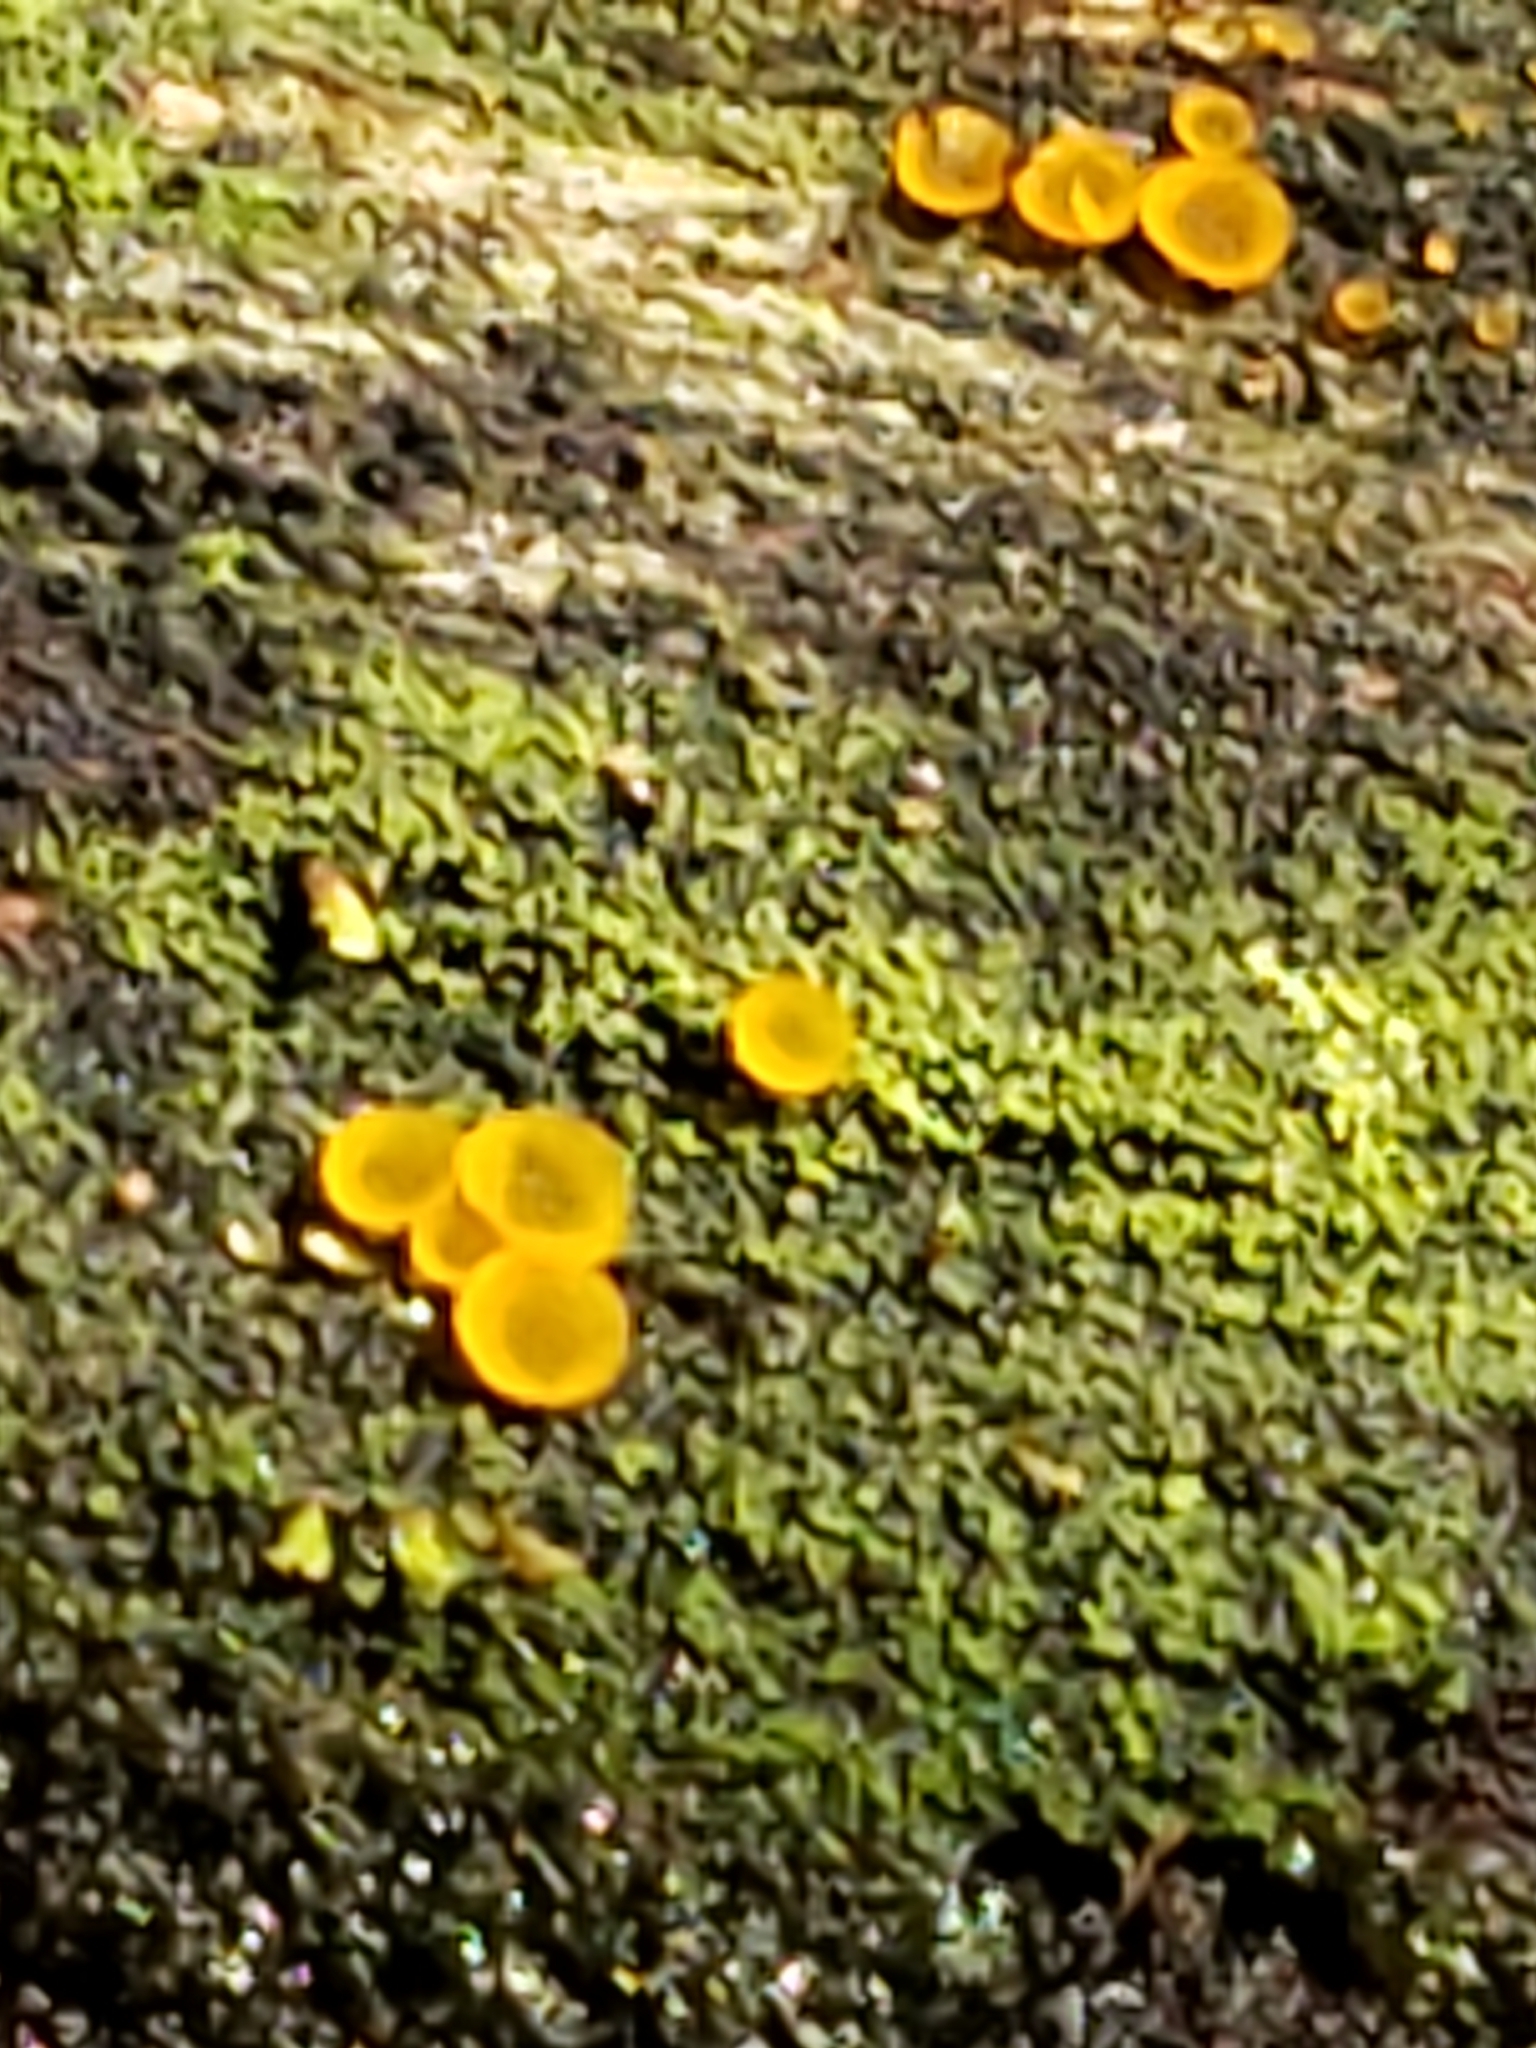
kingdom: Fungi
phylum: Ascomycota
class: Orbiliomycetes
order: Orbiliales
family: Orbiliaceae
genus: Orbilia
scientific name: Orbilia
